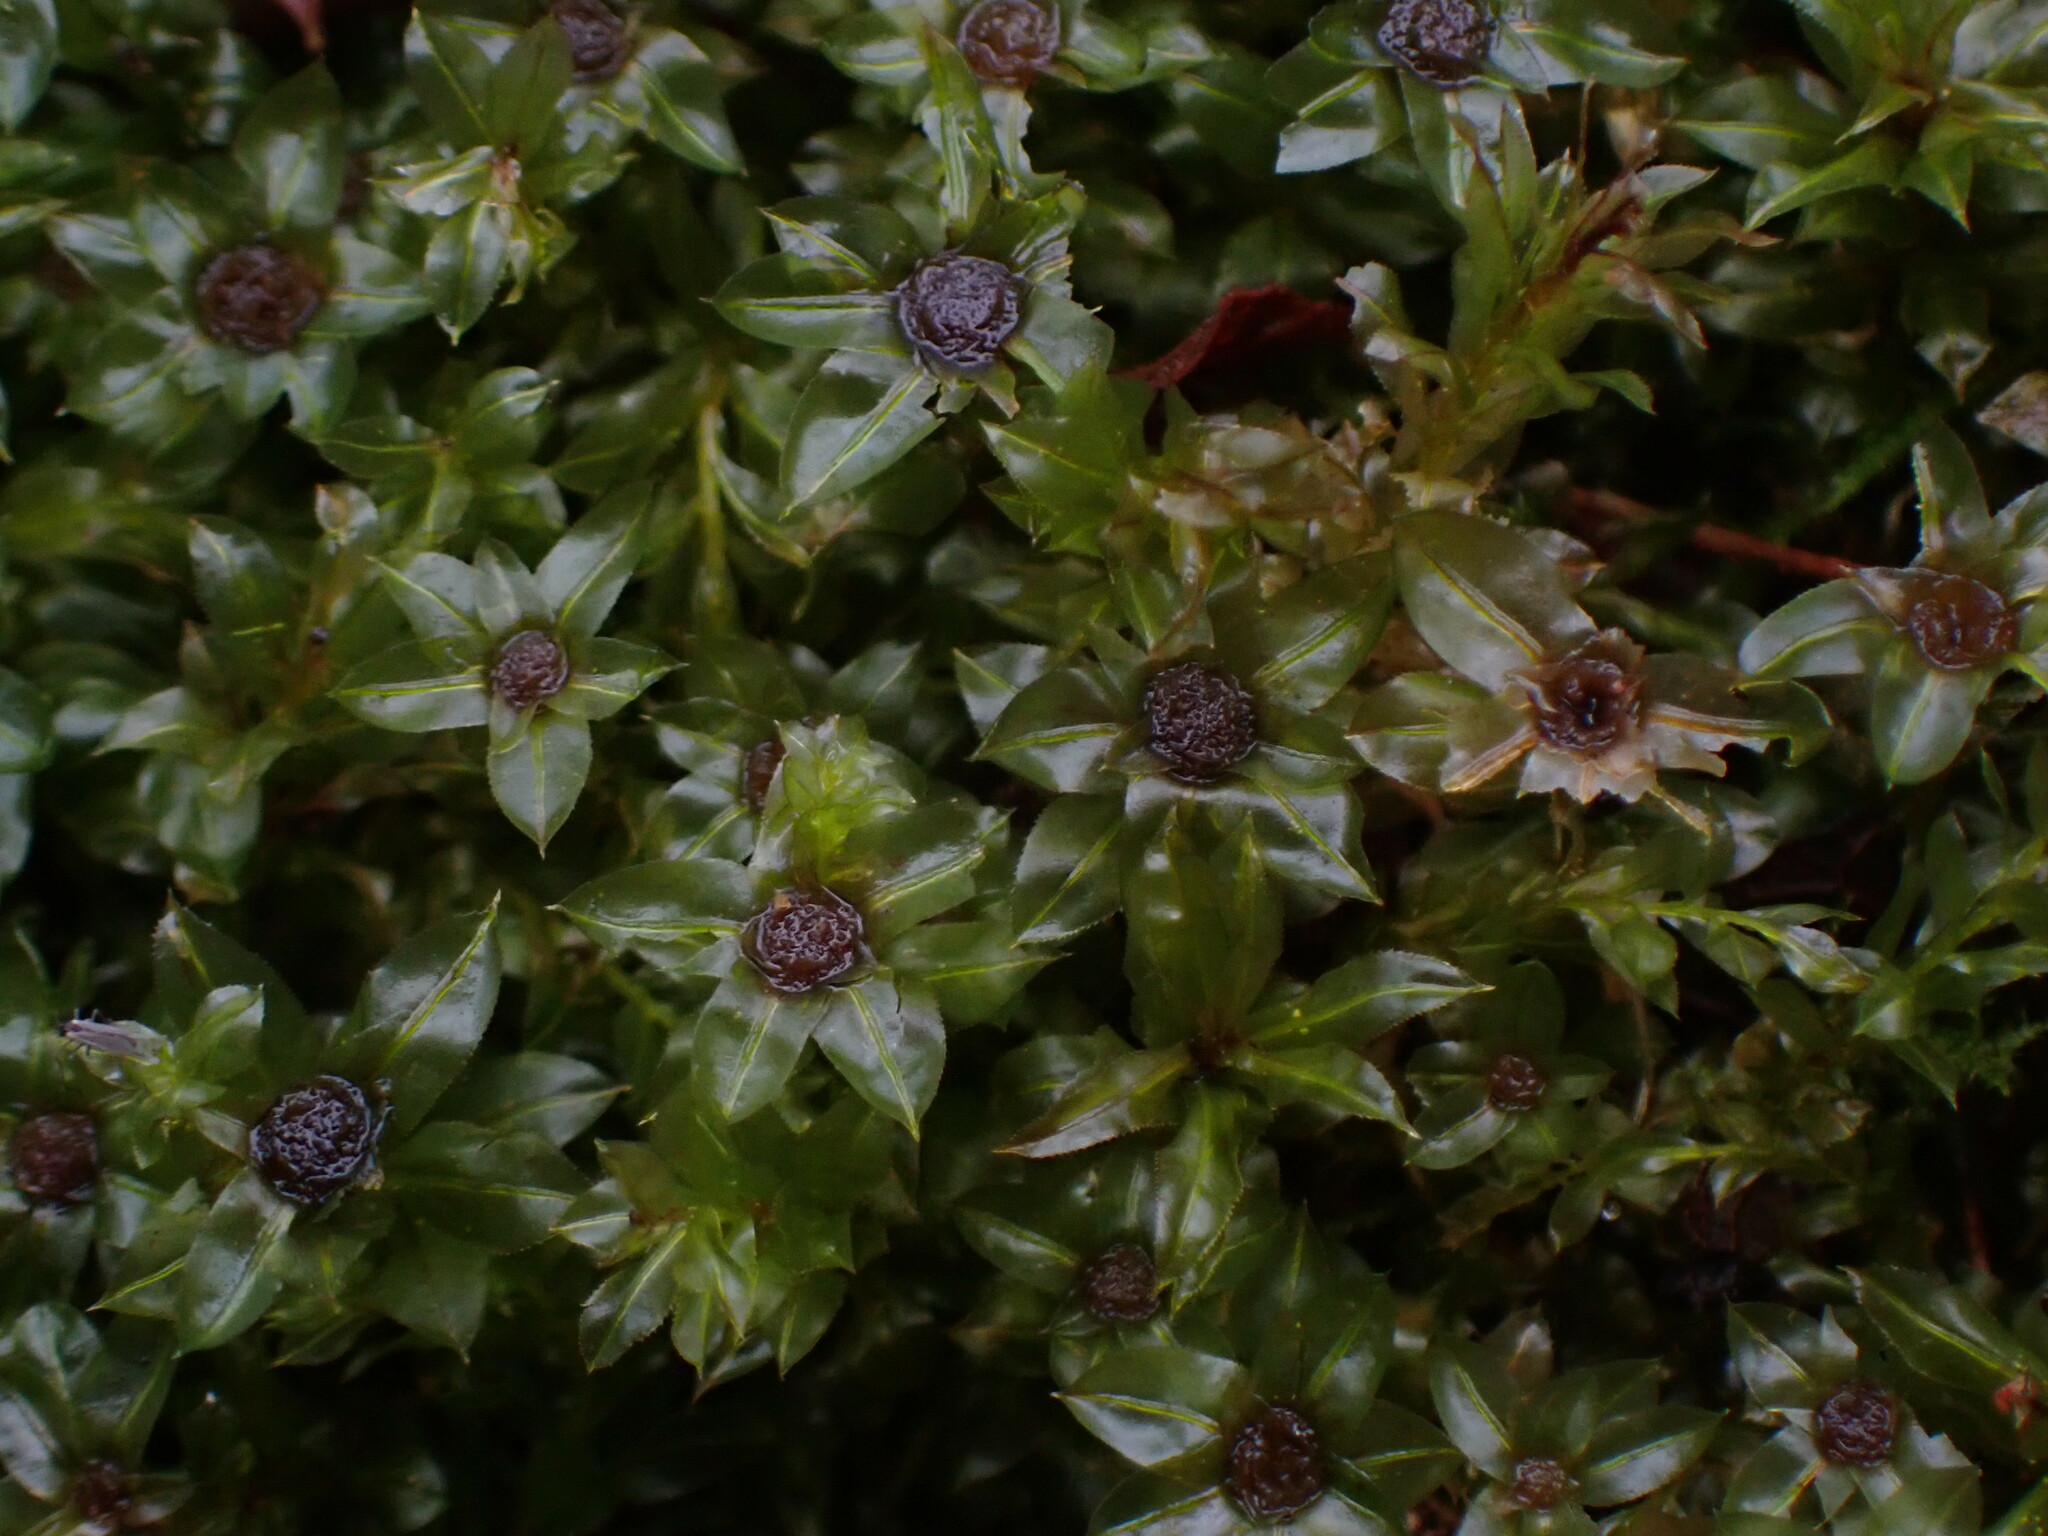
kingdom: Plantae
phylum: Bryophyta
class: Bryopsida
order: Bryales
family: Mniaceae
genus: Plagiomnium
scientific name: Plagiomnium insigne
